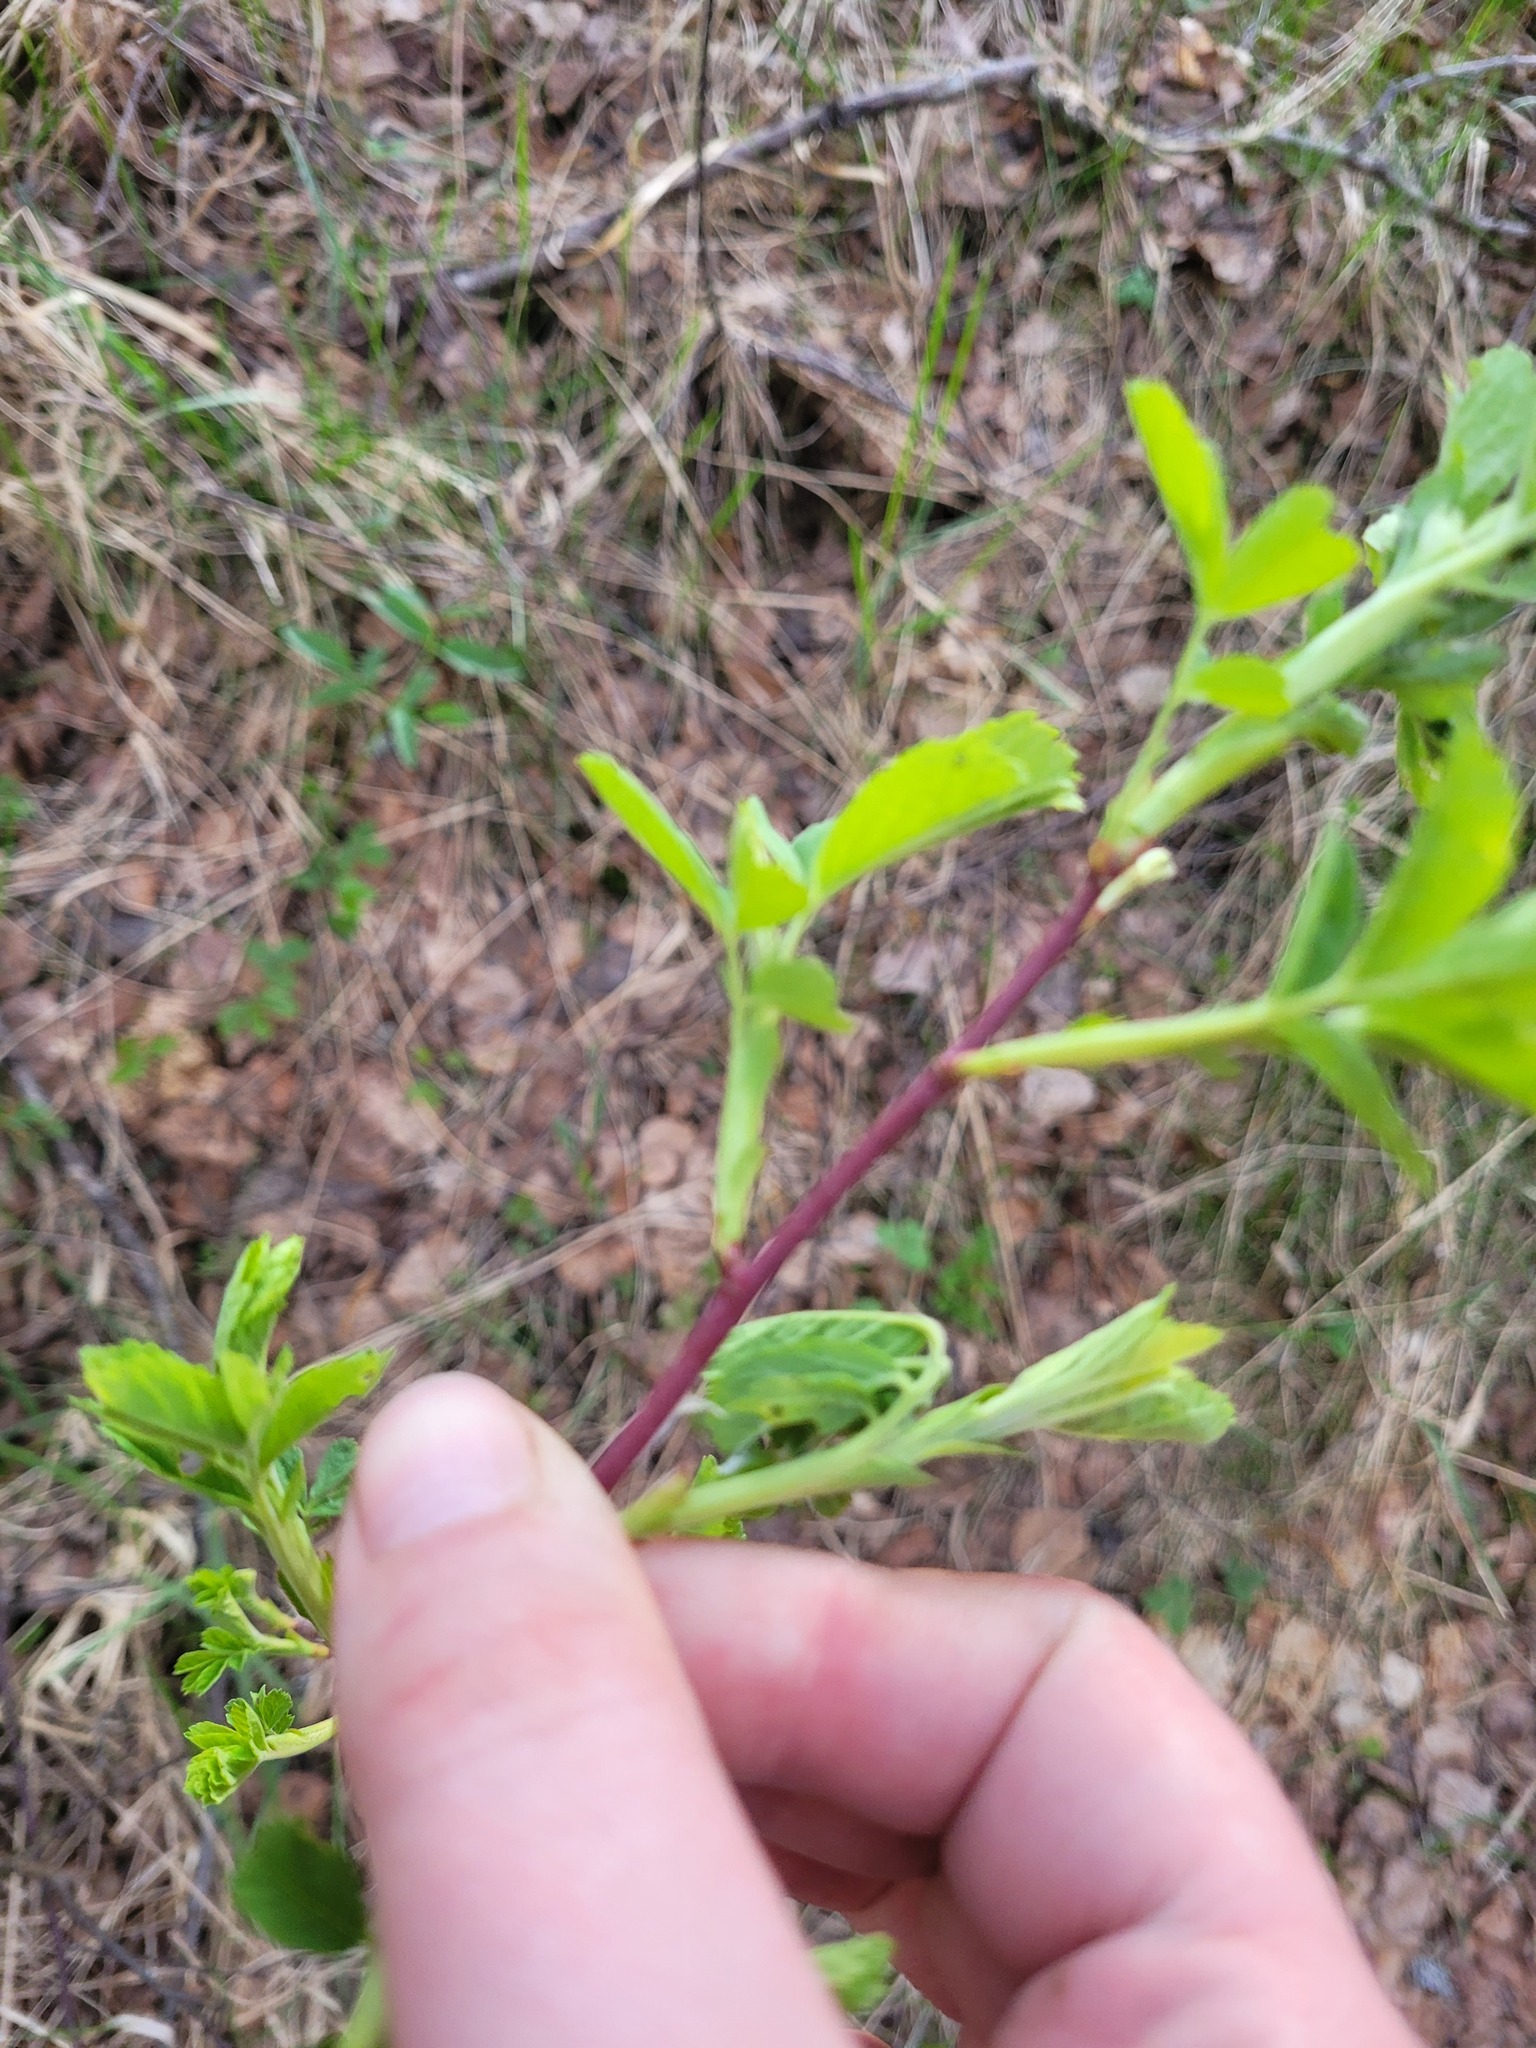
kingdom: Plantae
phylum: Tracheophyta
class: Magnoliopsida
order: Rosales
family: Rosaceae
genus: Rosa
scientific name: Rosa majalis
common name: Cinnamon rose
